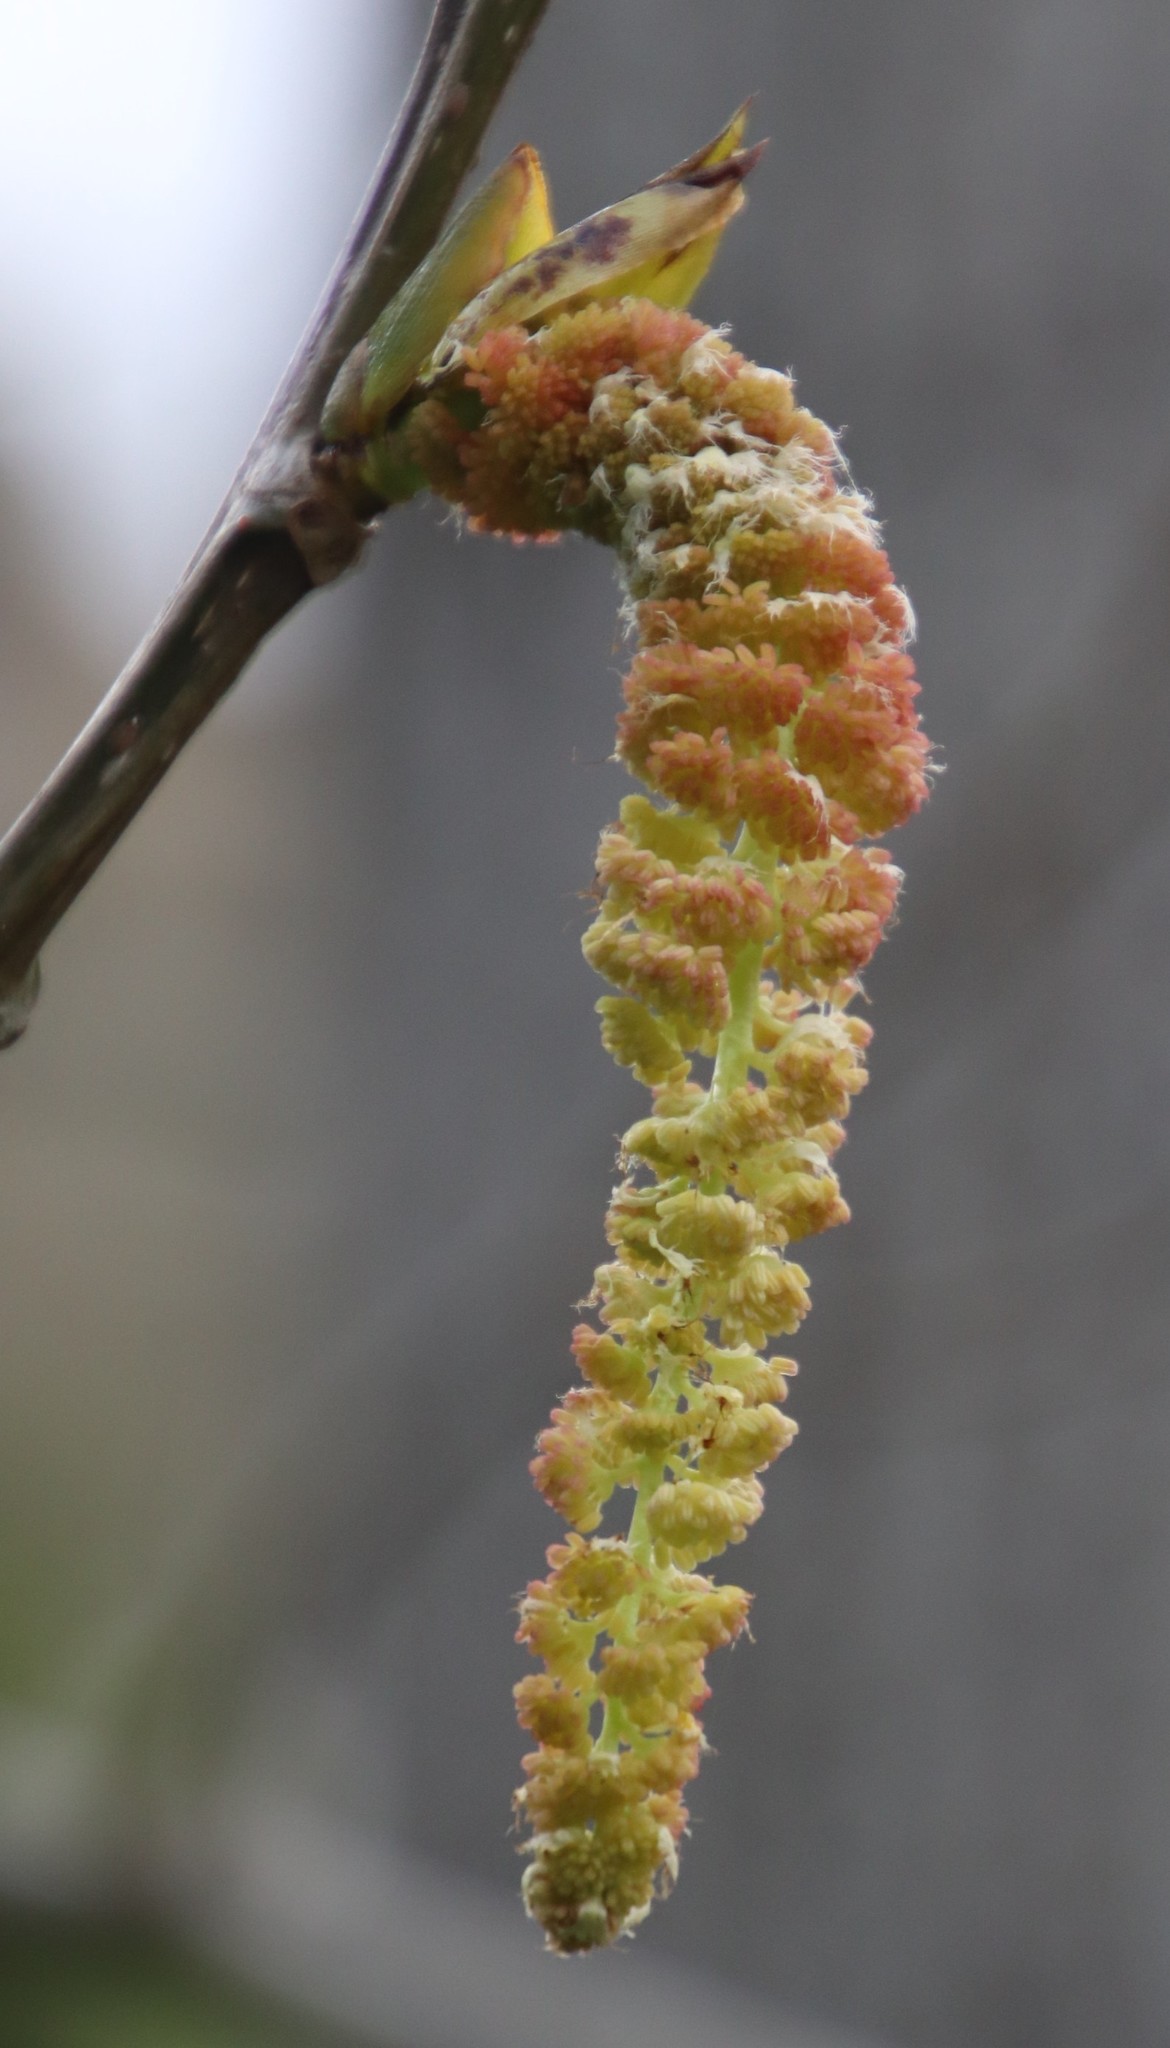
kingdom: Plantae
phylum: Tracheophyta
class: Magnoliopsida
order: Malpighiales
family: Salicaceae
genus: Populus
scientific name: Populus deltoides
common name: Eastern cottonwood
